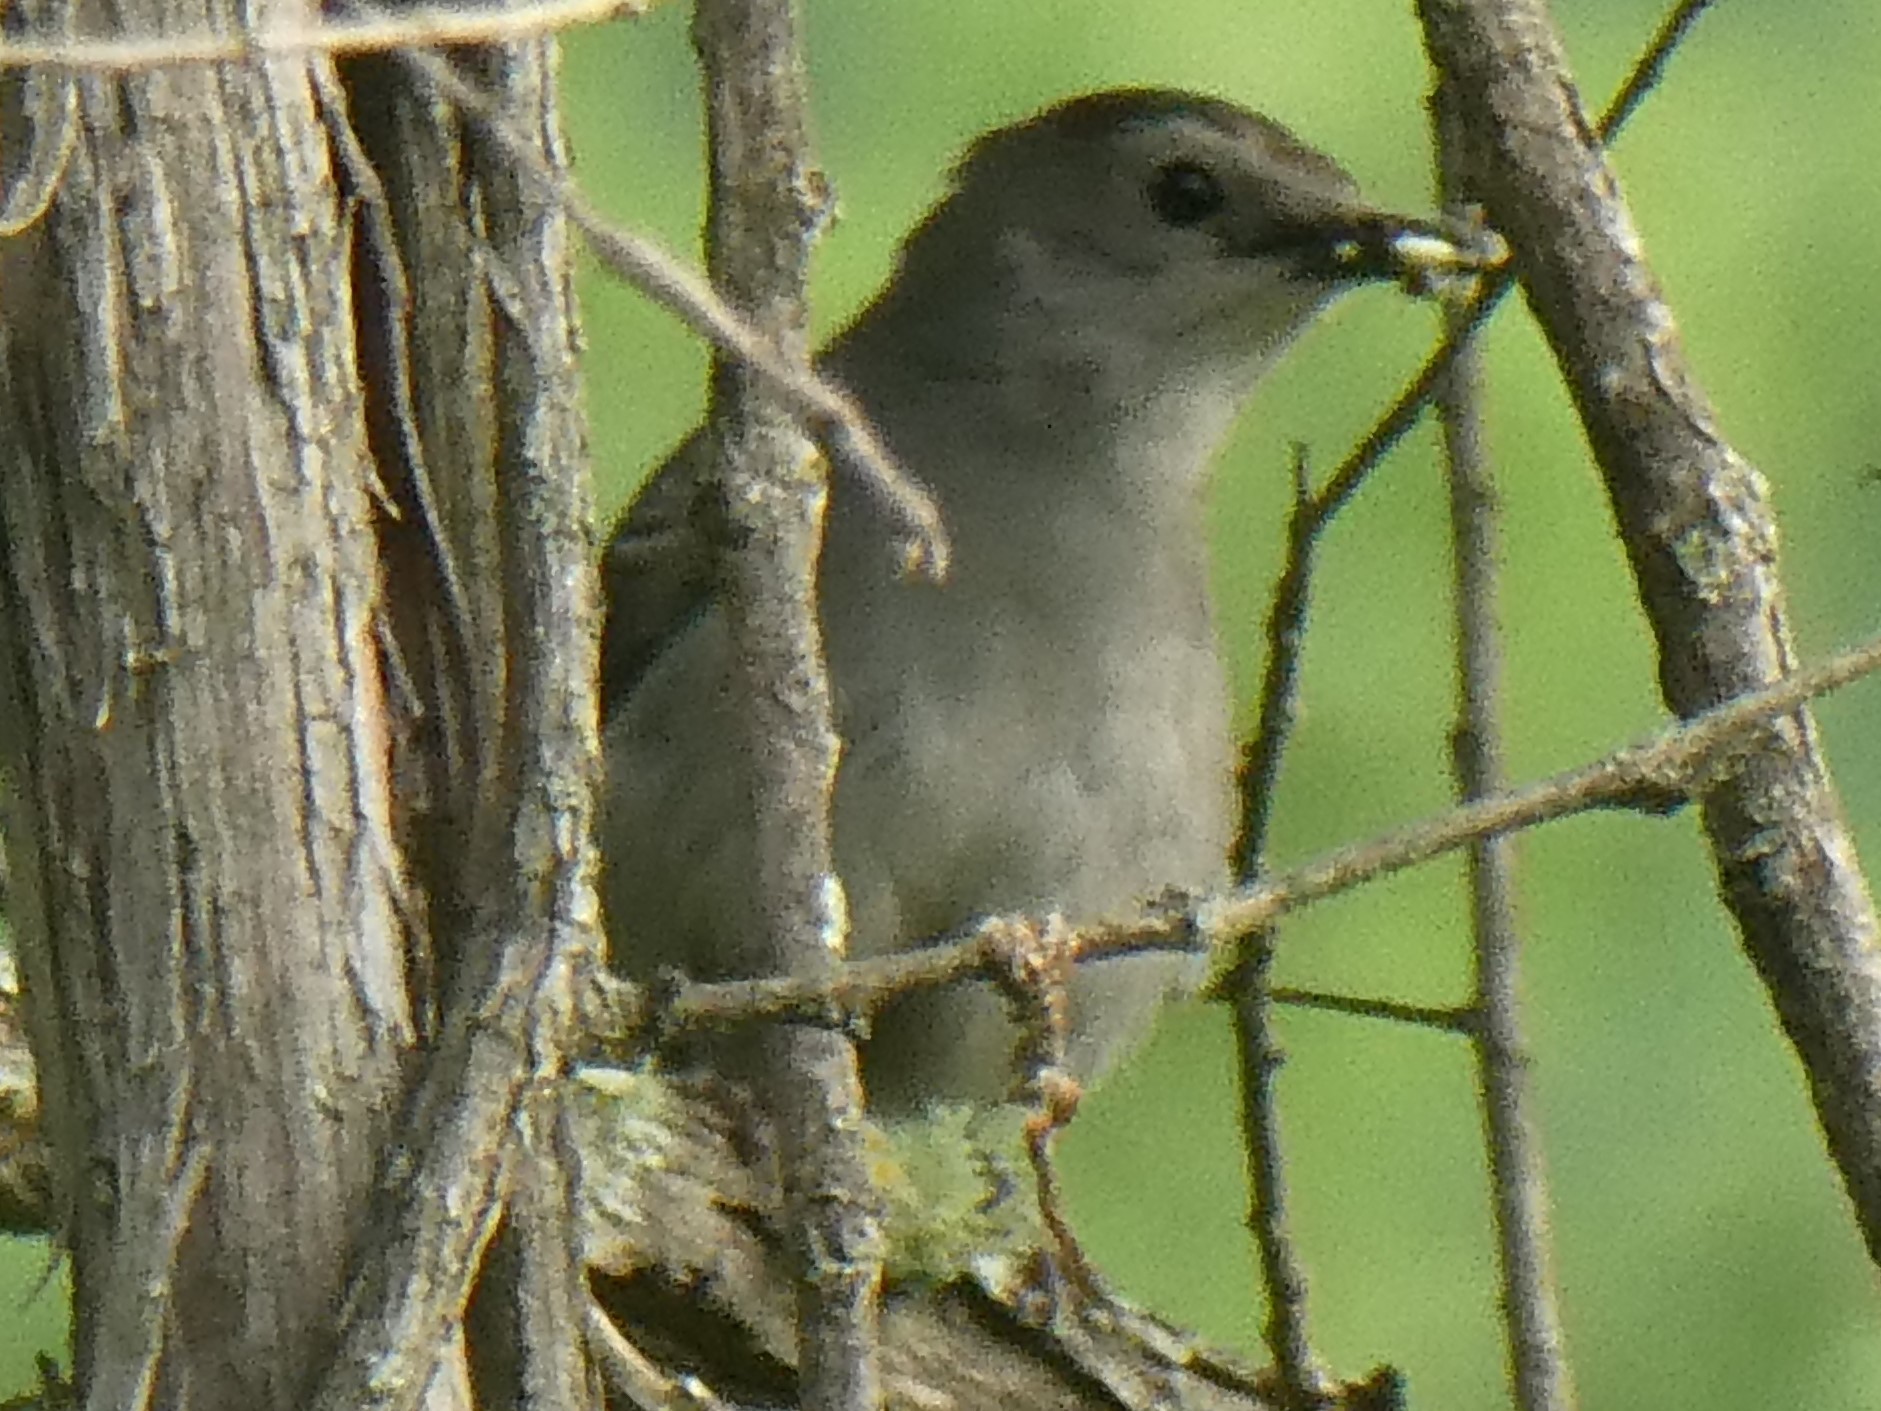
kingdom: Animalia
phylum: Chordata
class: Aves
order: Passeriformes
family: Mimidae
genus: Dumetella
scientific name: Dumetella carolinensis
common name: Gray catbird
